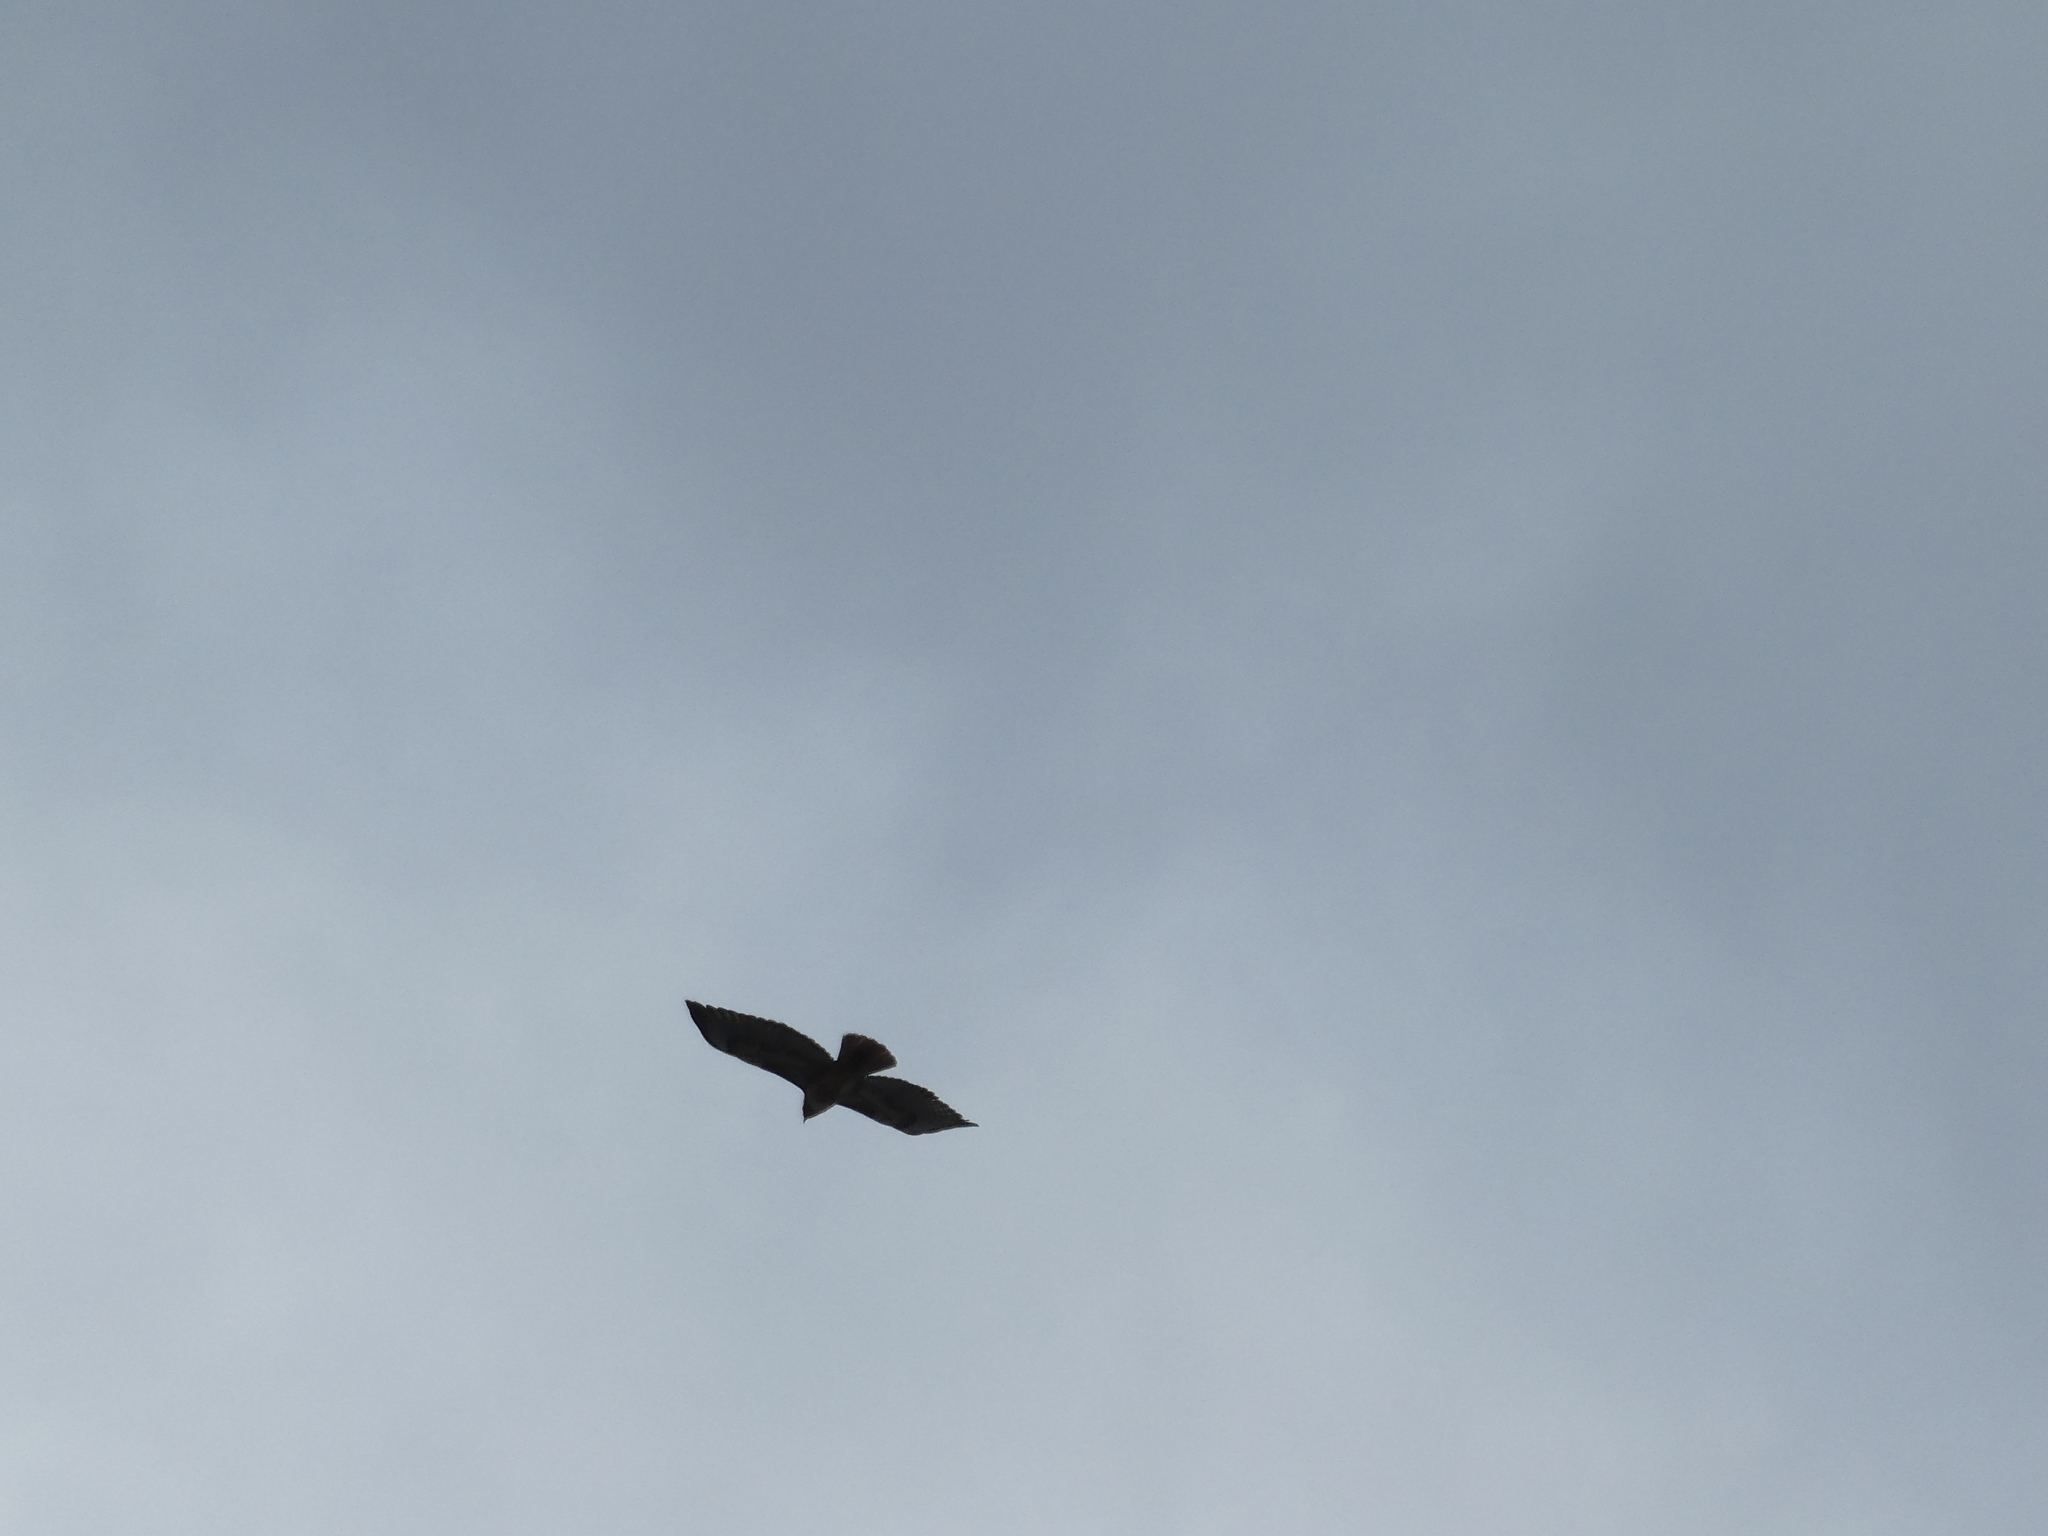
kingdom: Animalia
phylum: Chordata
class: Aves
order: Accipitriformes
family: Accipitridae
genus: Buteo
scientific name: Buteo jamaicensis
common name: Red-tailed hawk
